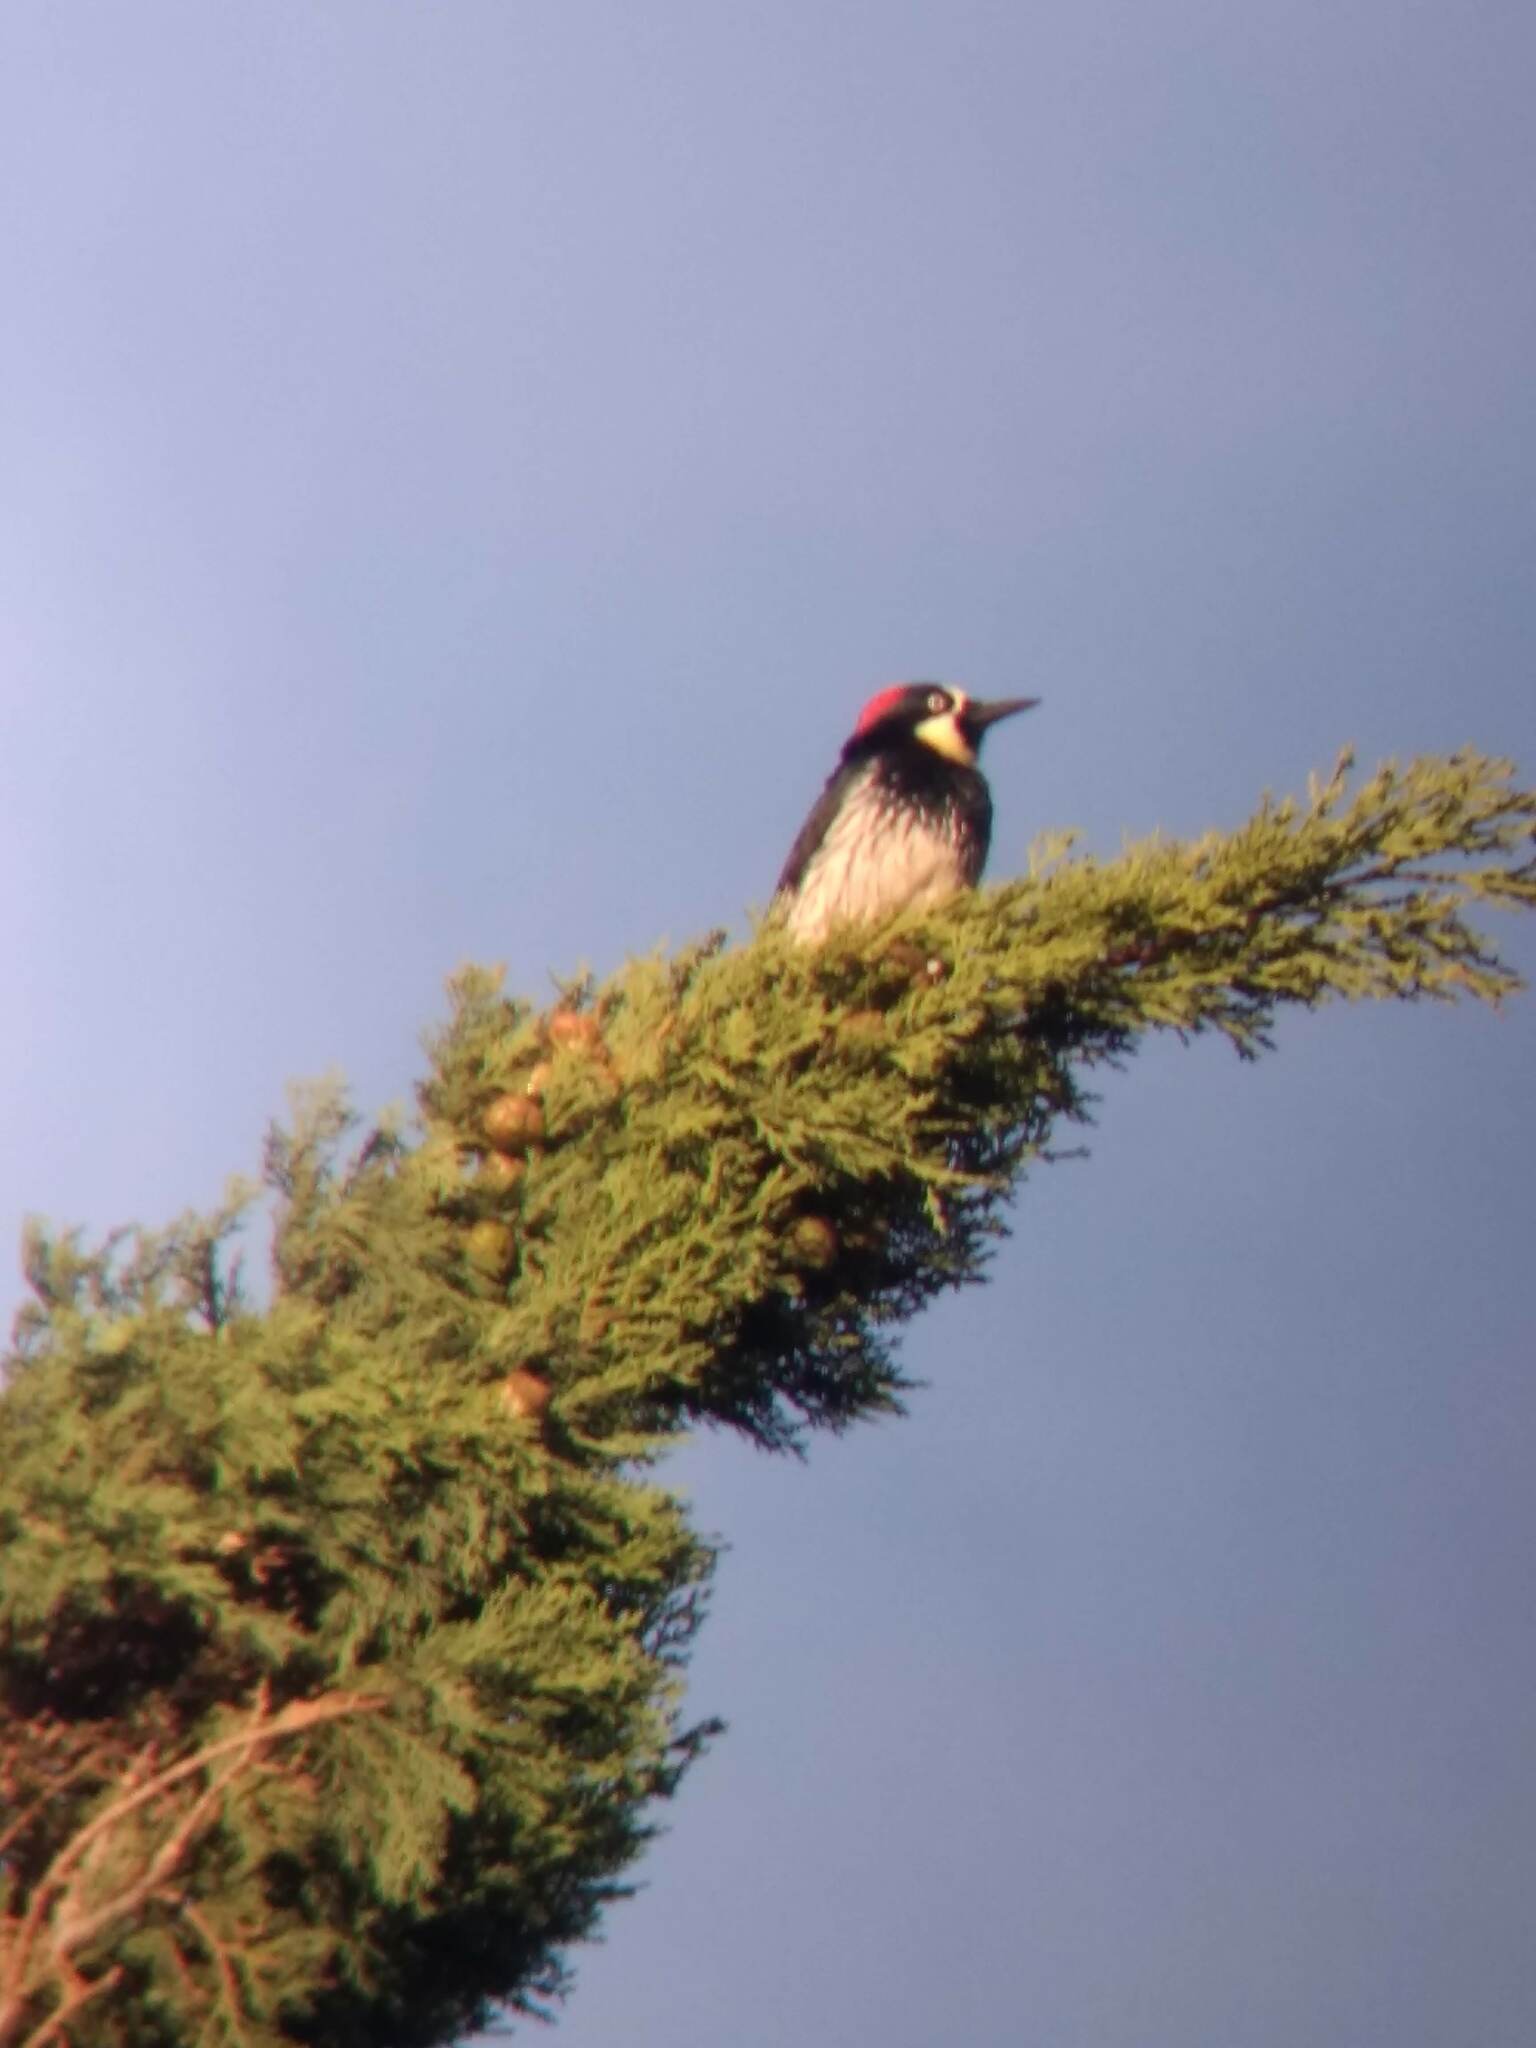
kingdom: Animalia
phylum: Chordata
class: Aves
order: Piciformes
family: Picidae
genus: Melanerpes
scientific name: Melanerpes formicivorus
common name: Acorn woodpecker
